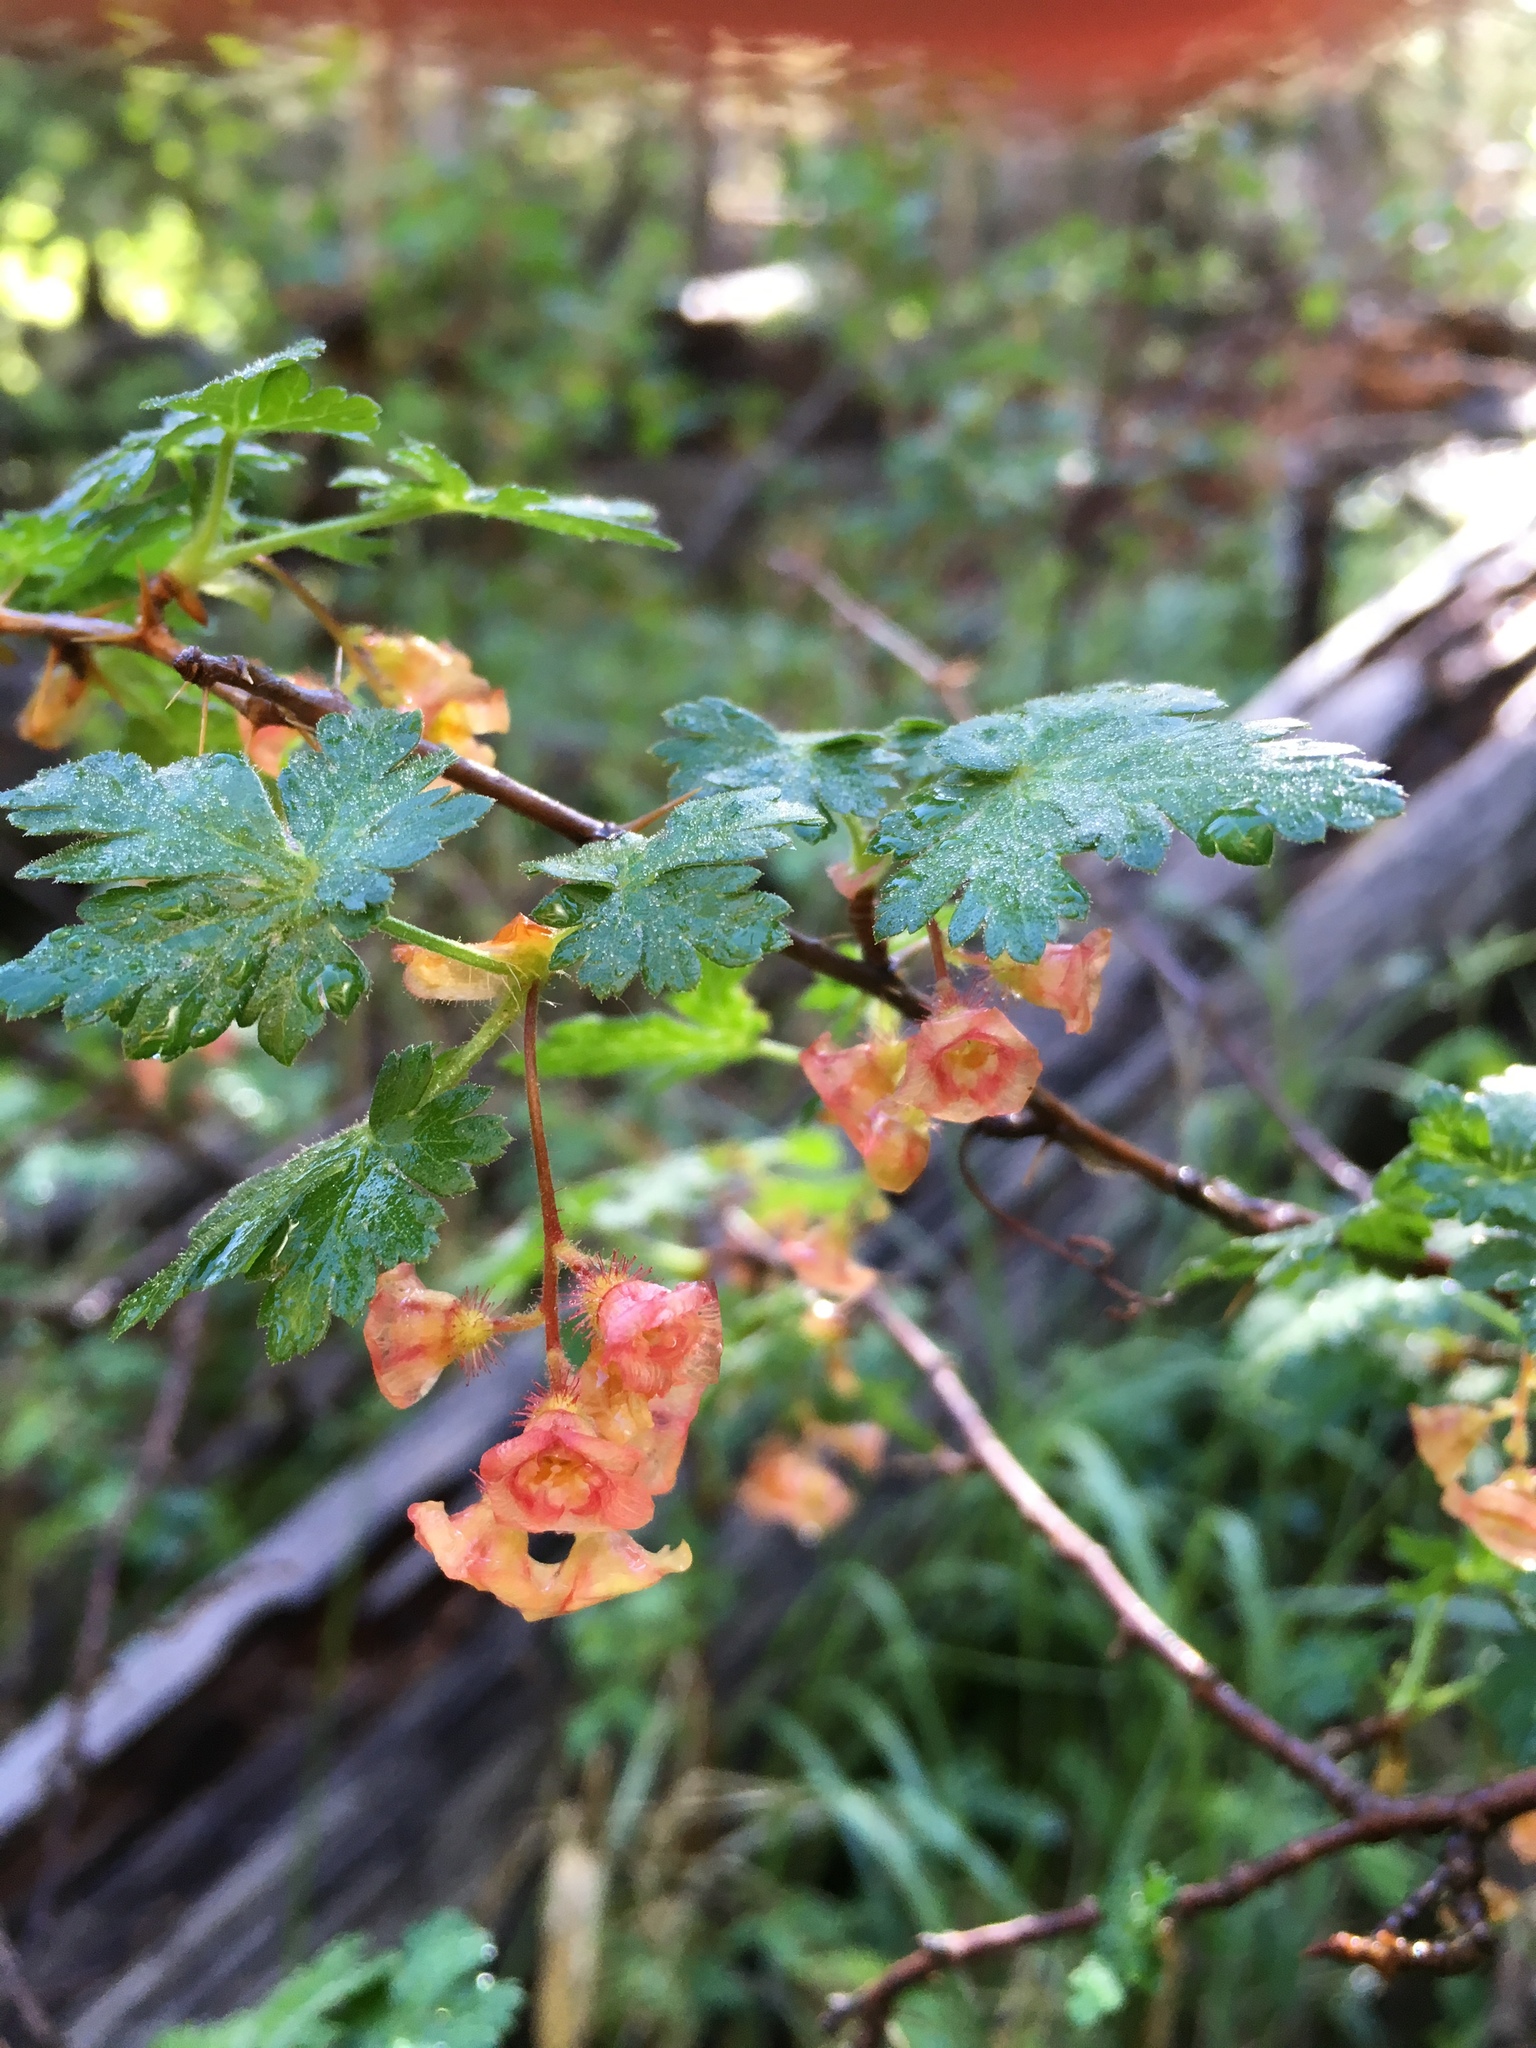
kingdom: Plantae
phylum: Tracheophyta
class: Magnoliopsida
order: Saxifragales
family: Grossulariaceae
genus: Ribes
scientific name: Ribes montigenum
